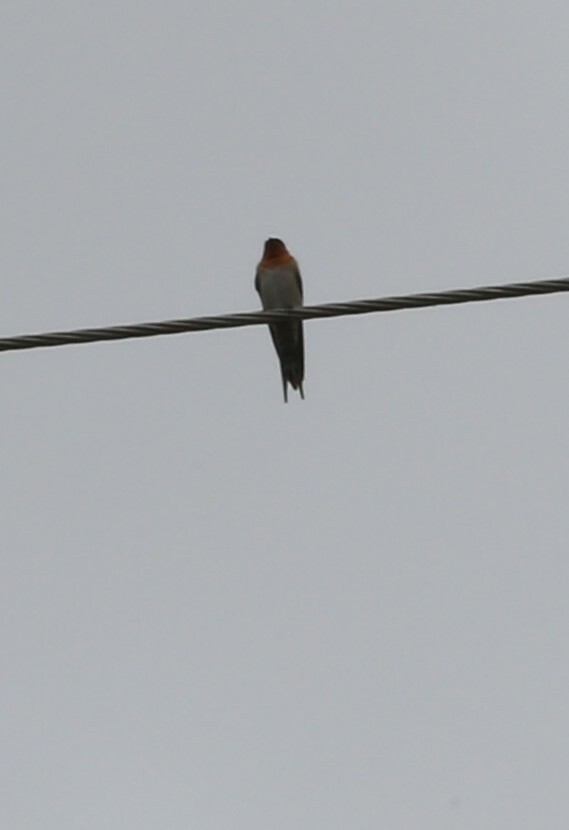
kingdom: Animalia
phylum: Chordata
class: Aves
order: Passeriformes
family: Hirundinidae
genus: Hirundo
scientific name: Hirundo neoxena
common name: Welcome swallow
